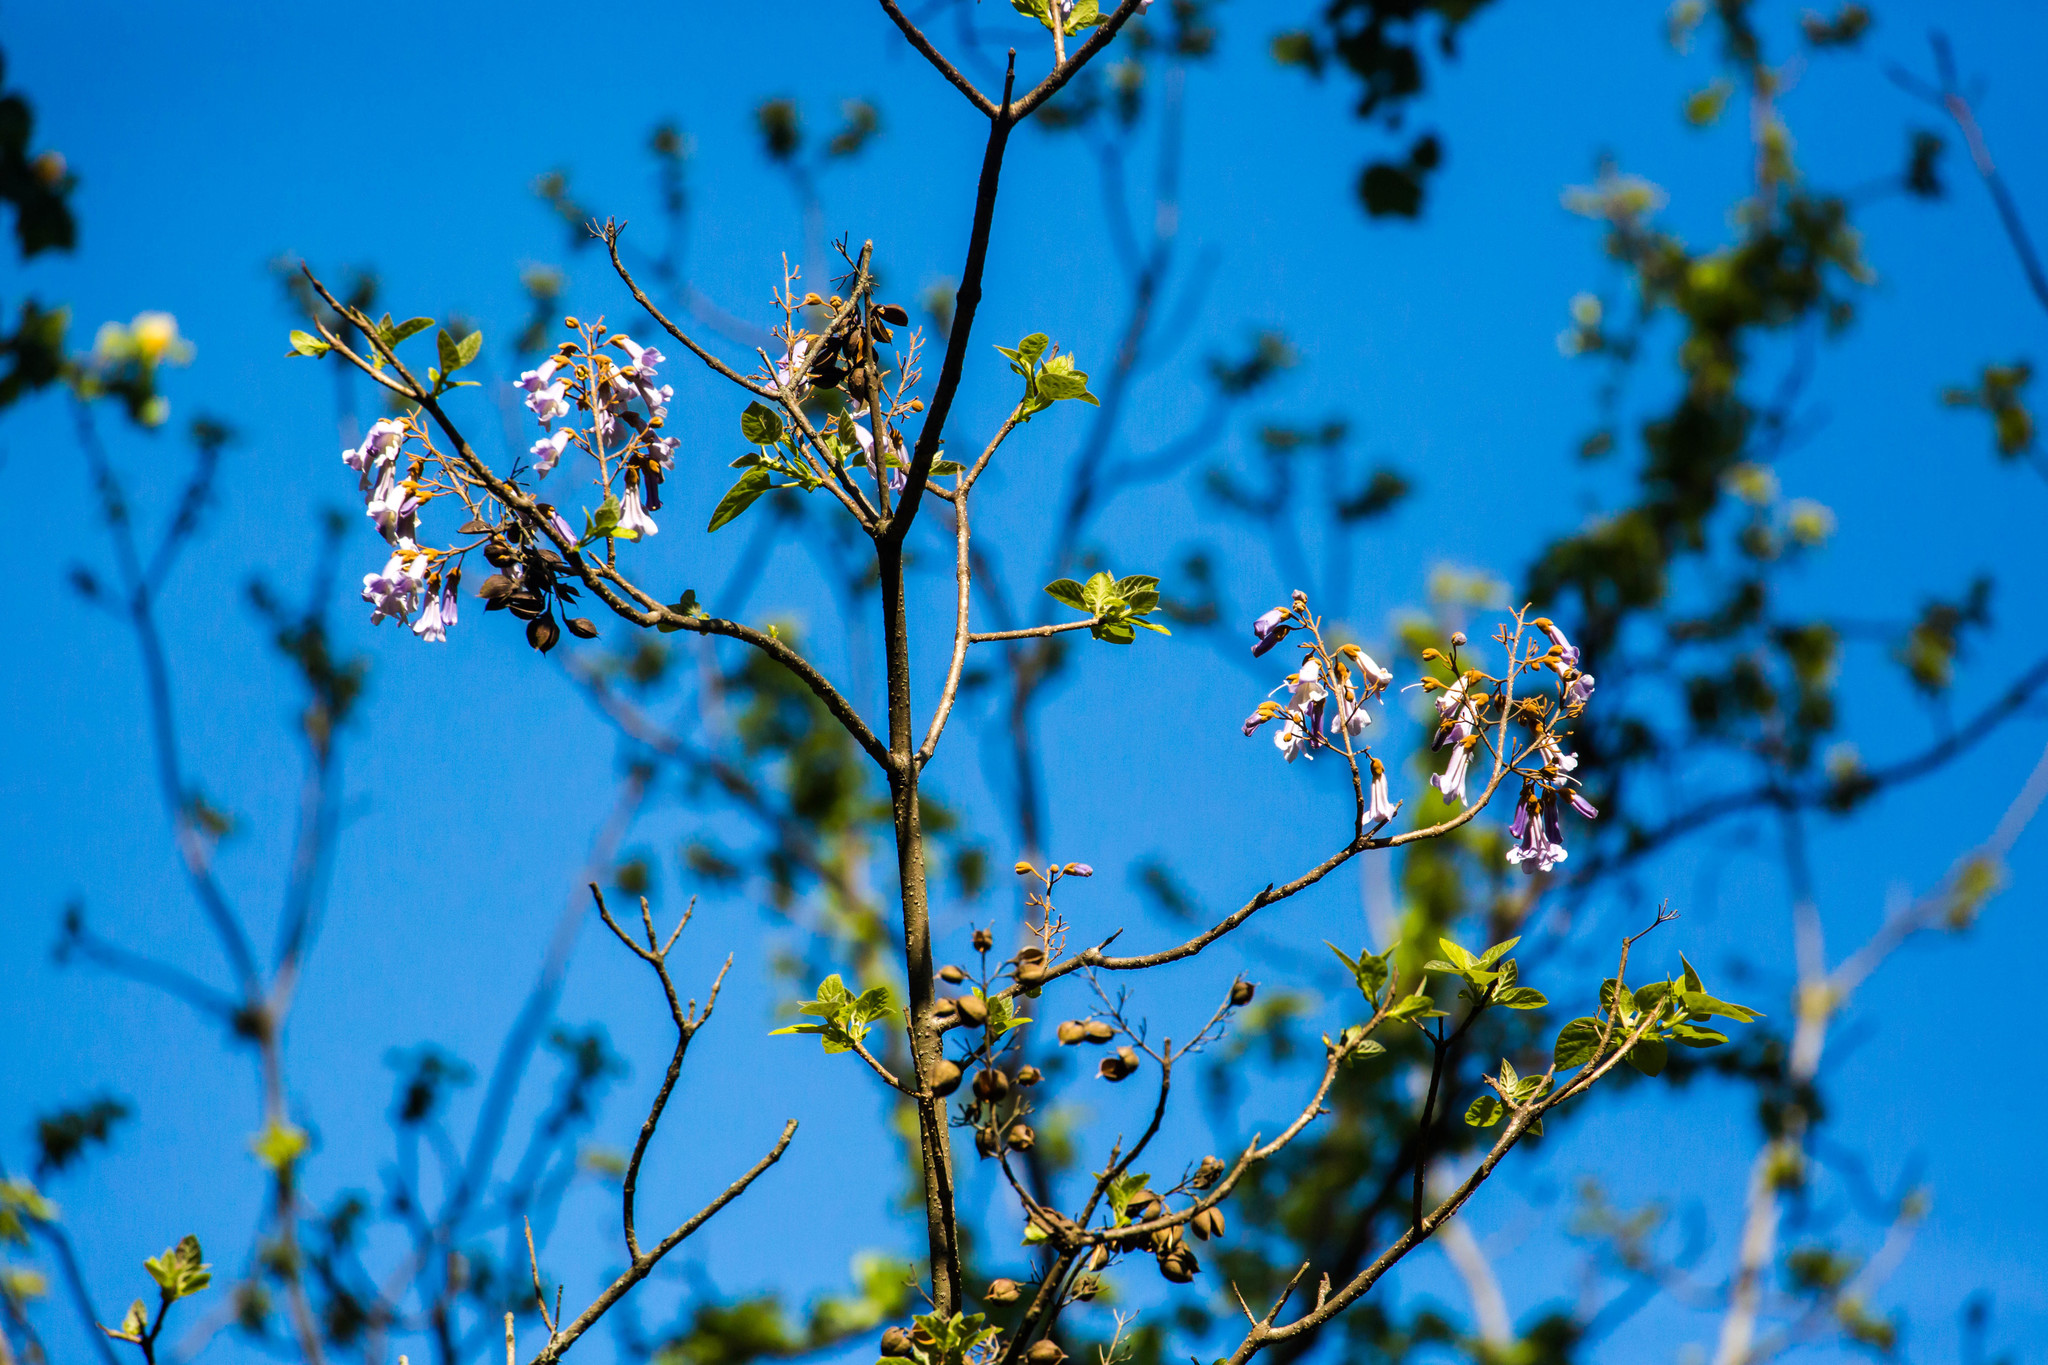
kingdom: Plantae
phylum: Tracheophyta
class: Magnoliopsida
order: Lamiales
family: Paulowniaceae
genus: Paulownia
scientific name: Paulownia tomentosa
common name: Foxglove-tree
